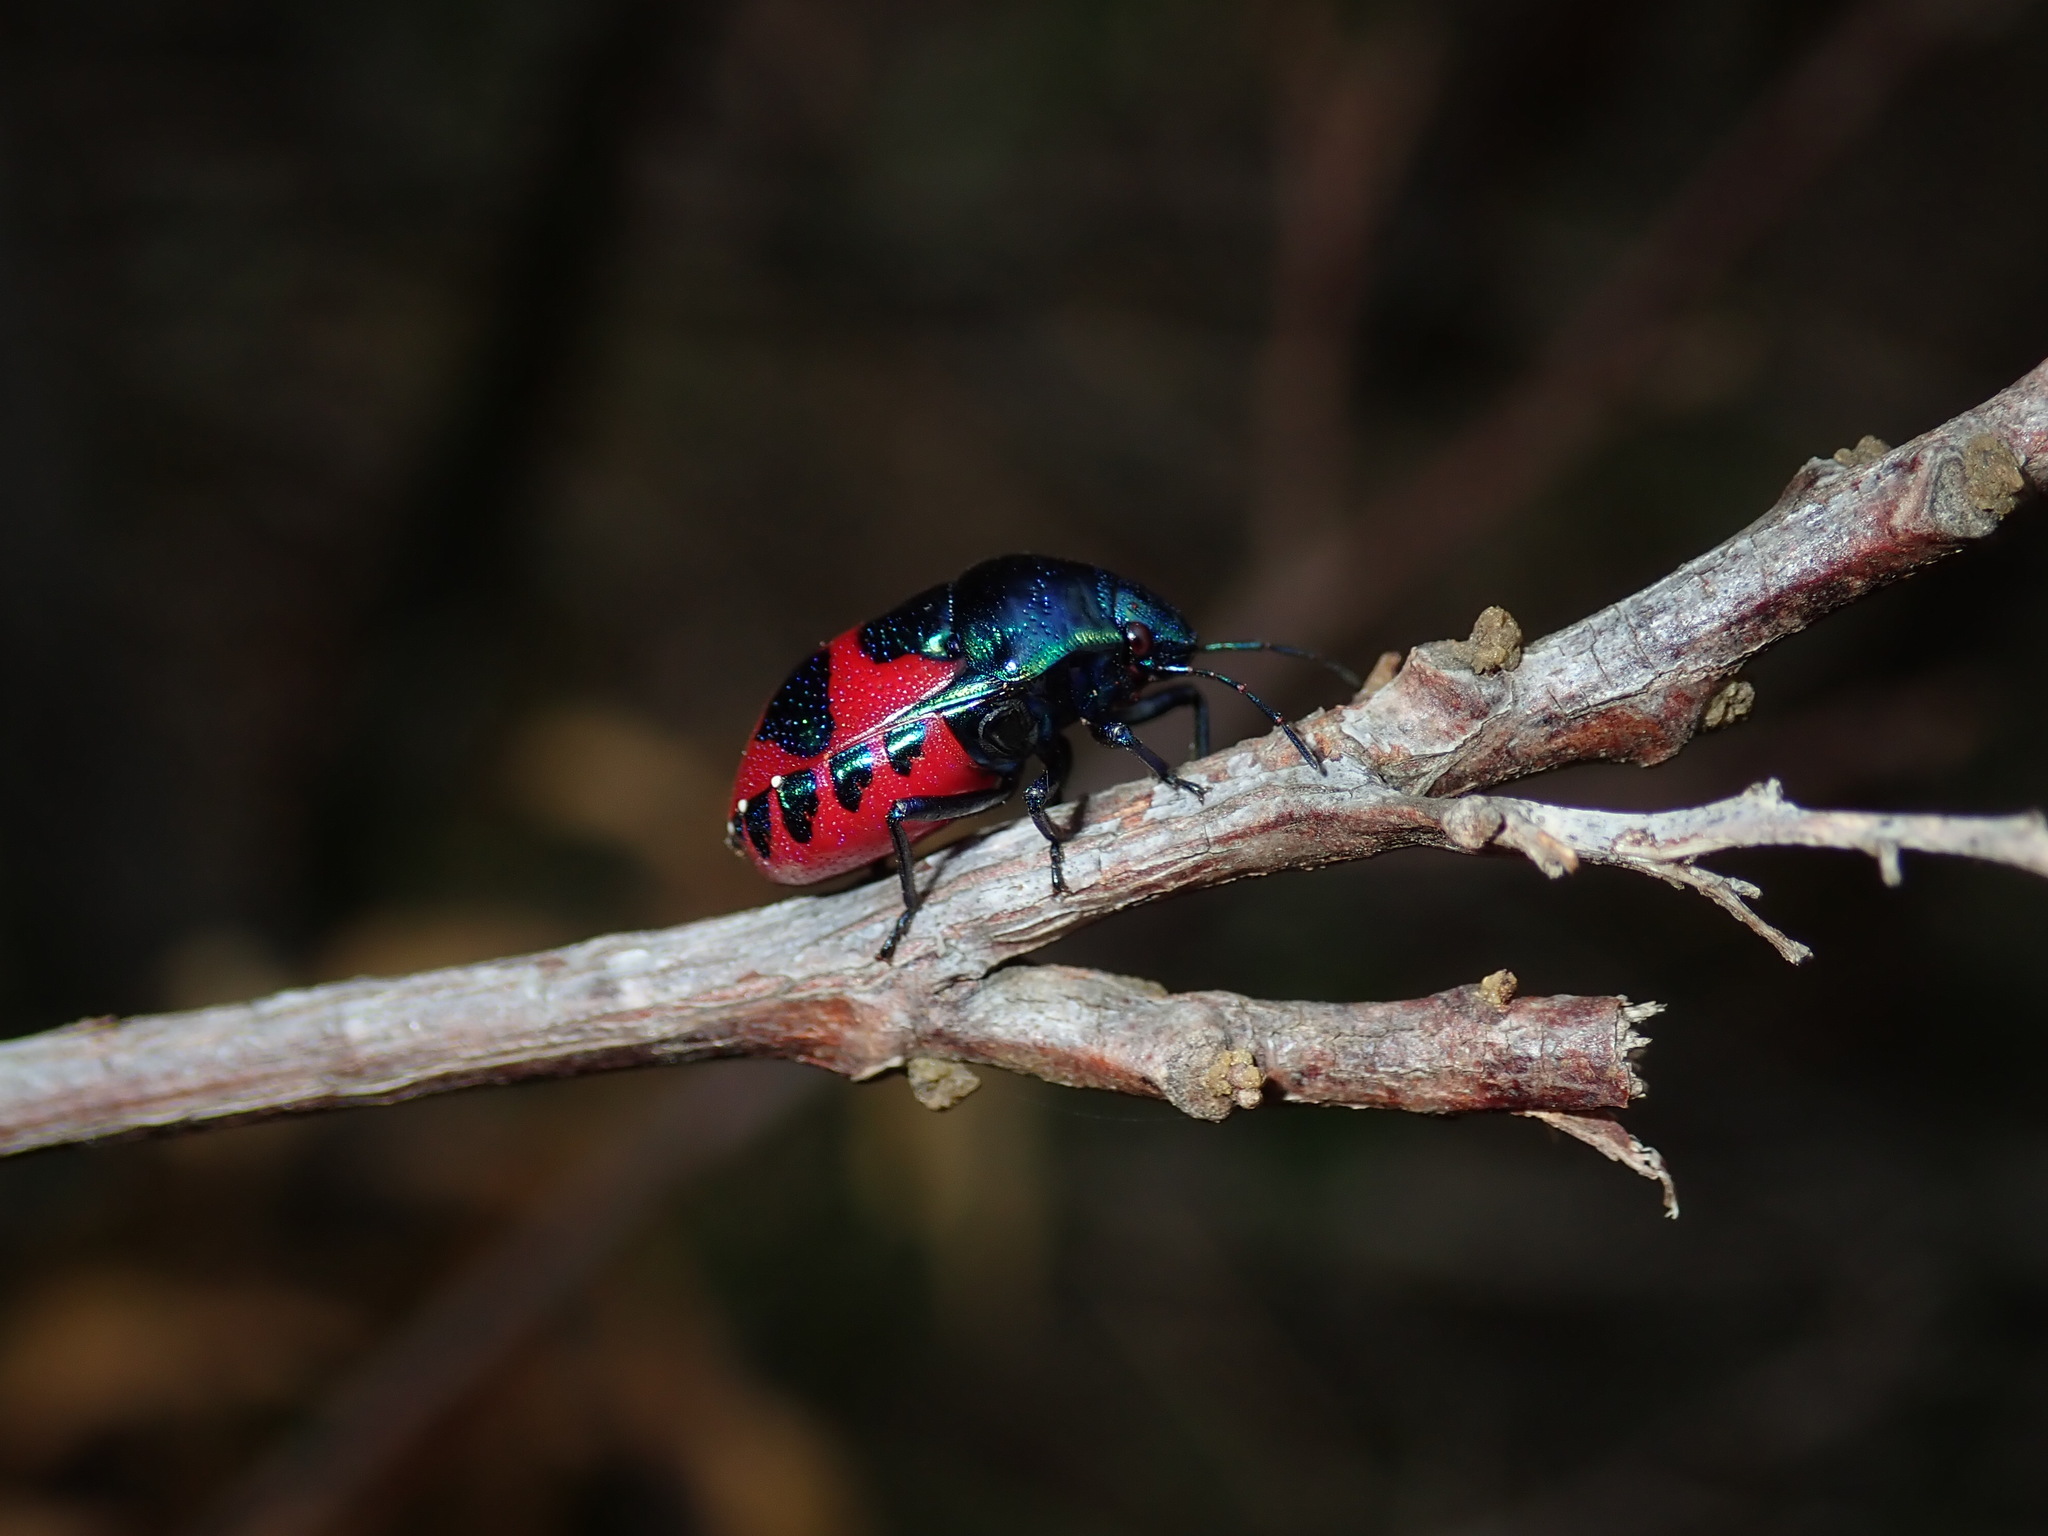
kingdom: Animalia
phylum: Arthropoda
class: Insecta
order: Hemiptera
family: Scutelleridae
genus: Choerocoris
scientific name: Choerocoris paganus
